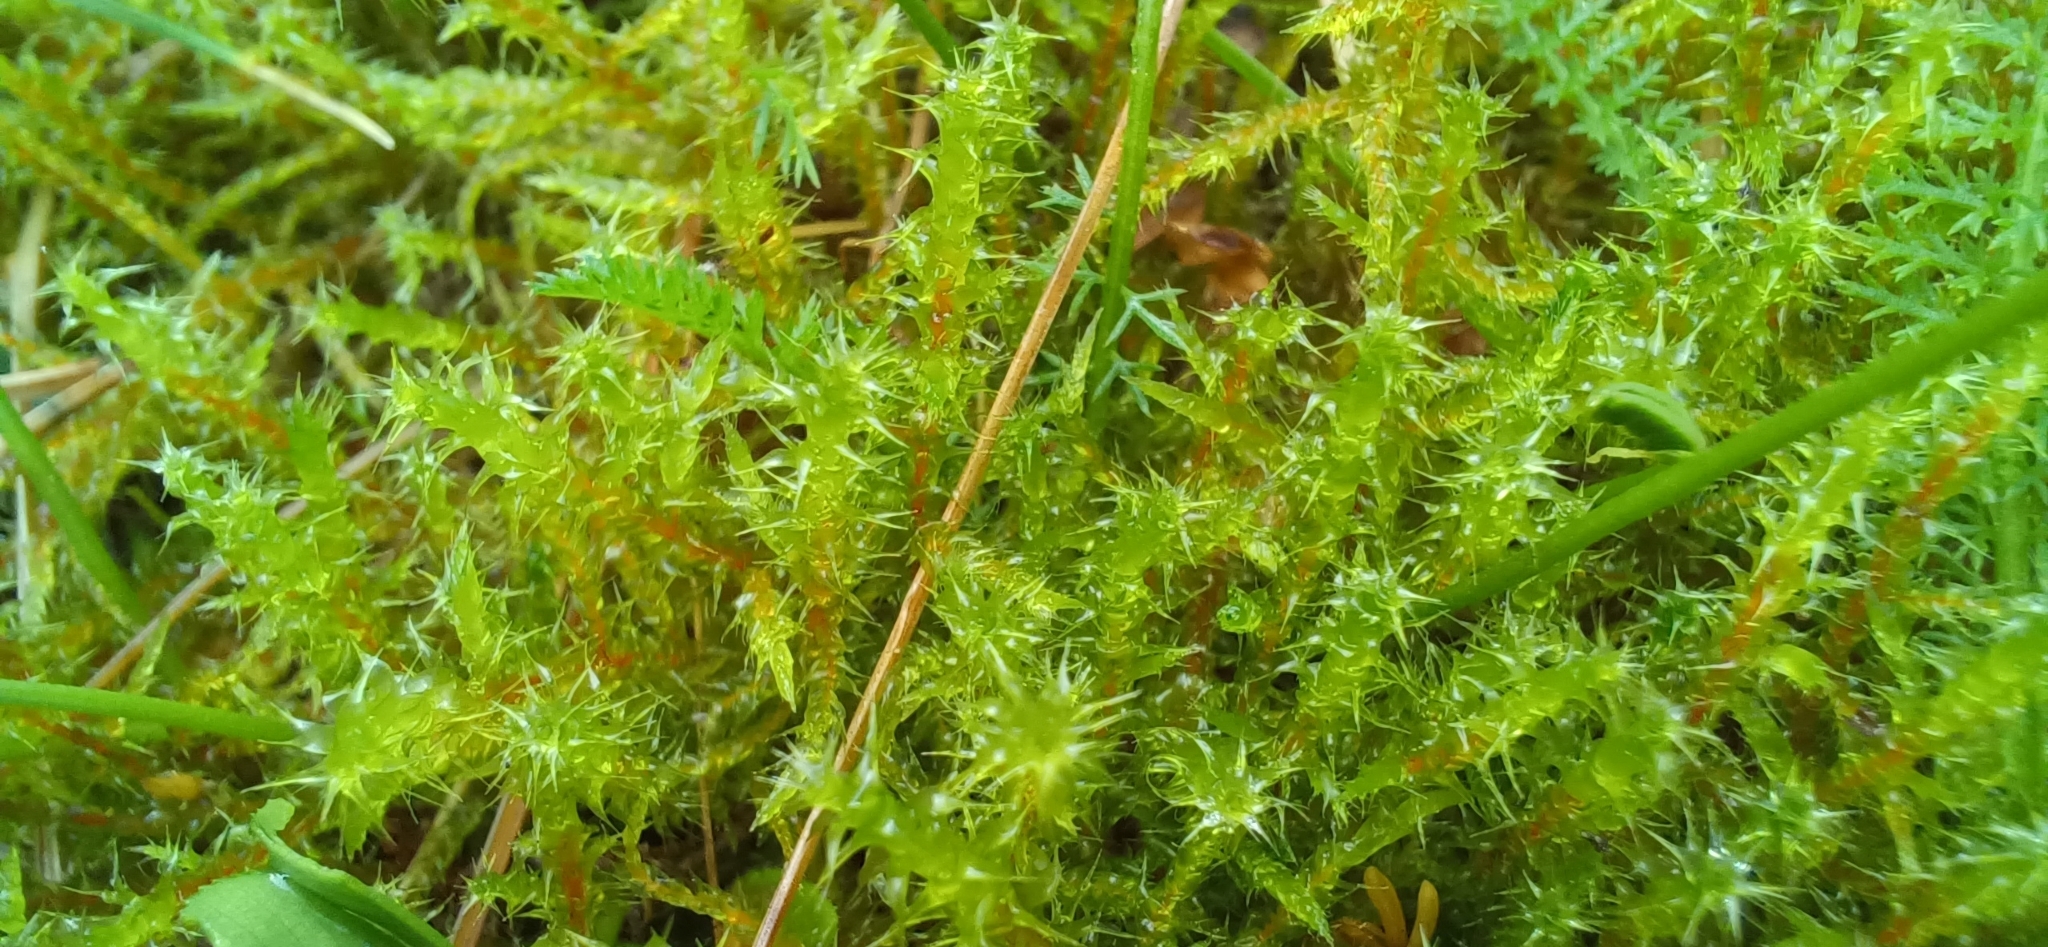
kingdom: Plantae
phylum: Bryophyta
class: Bryopsida
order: Hypnales
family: Hylocomiaceae
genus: Rhytidiadelphus
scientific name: Rhytidiadelphus squarrosus
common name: Springy turf-moss
